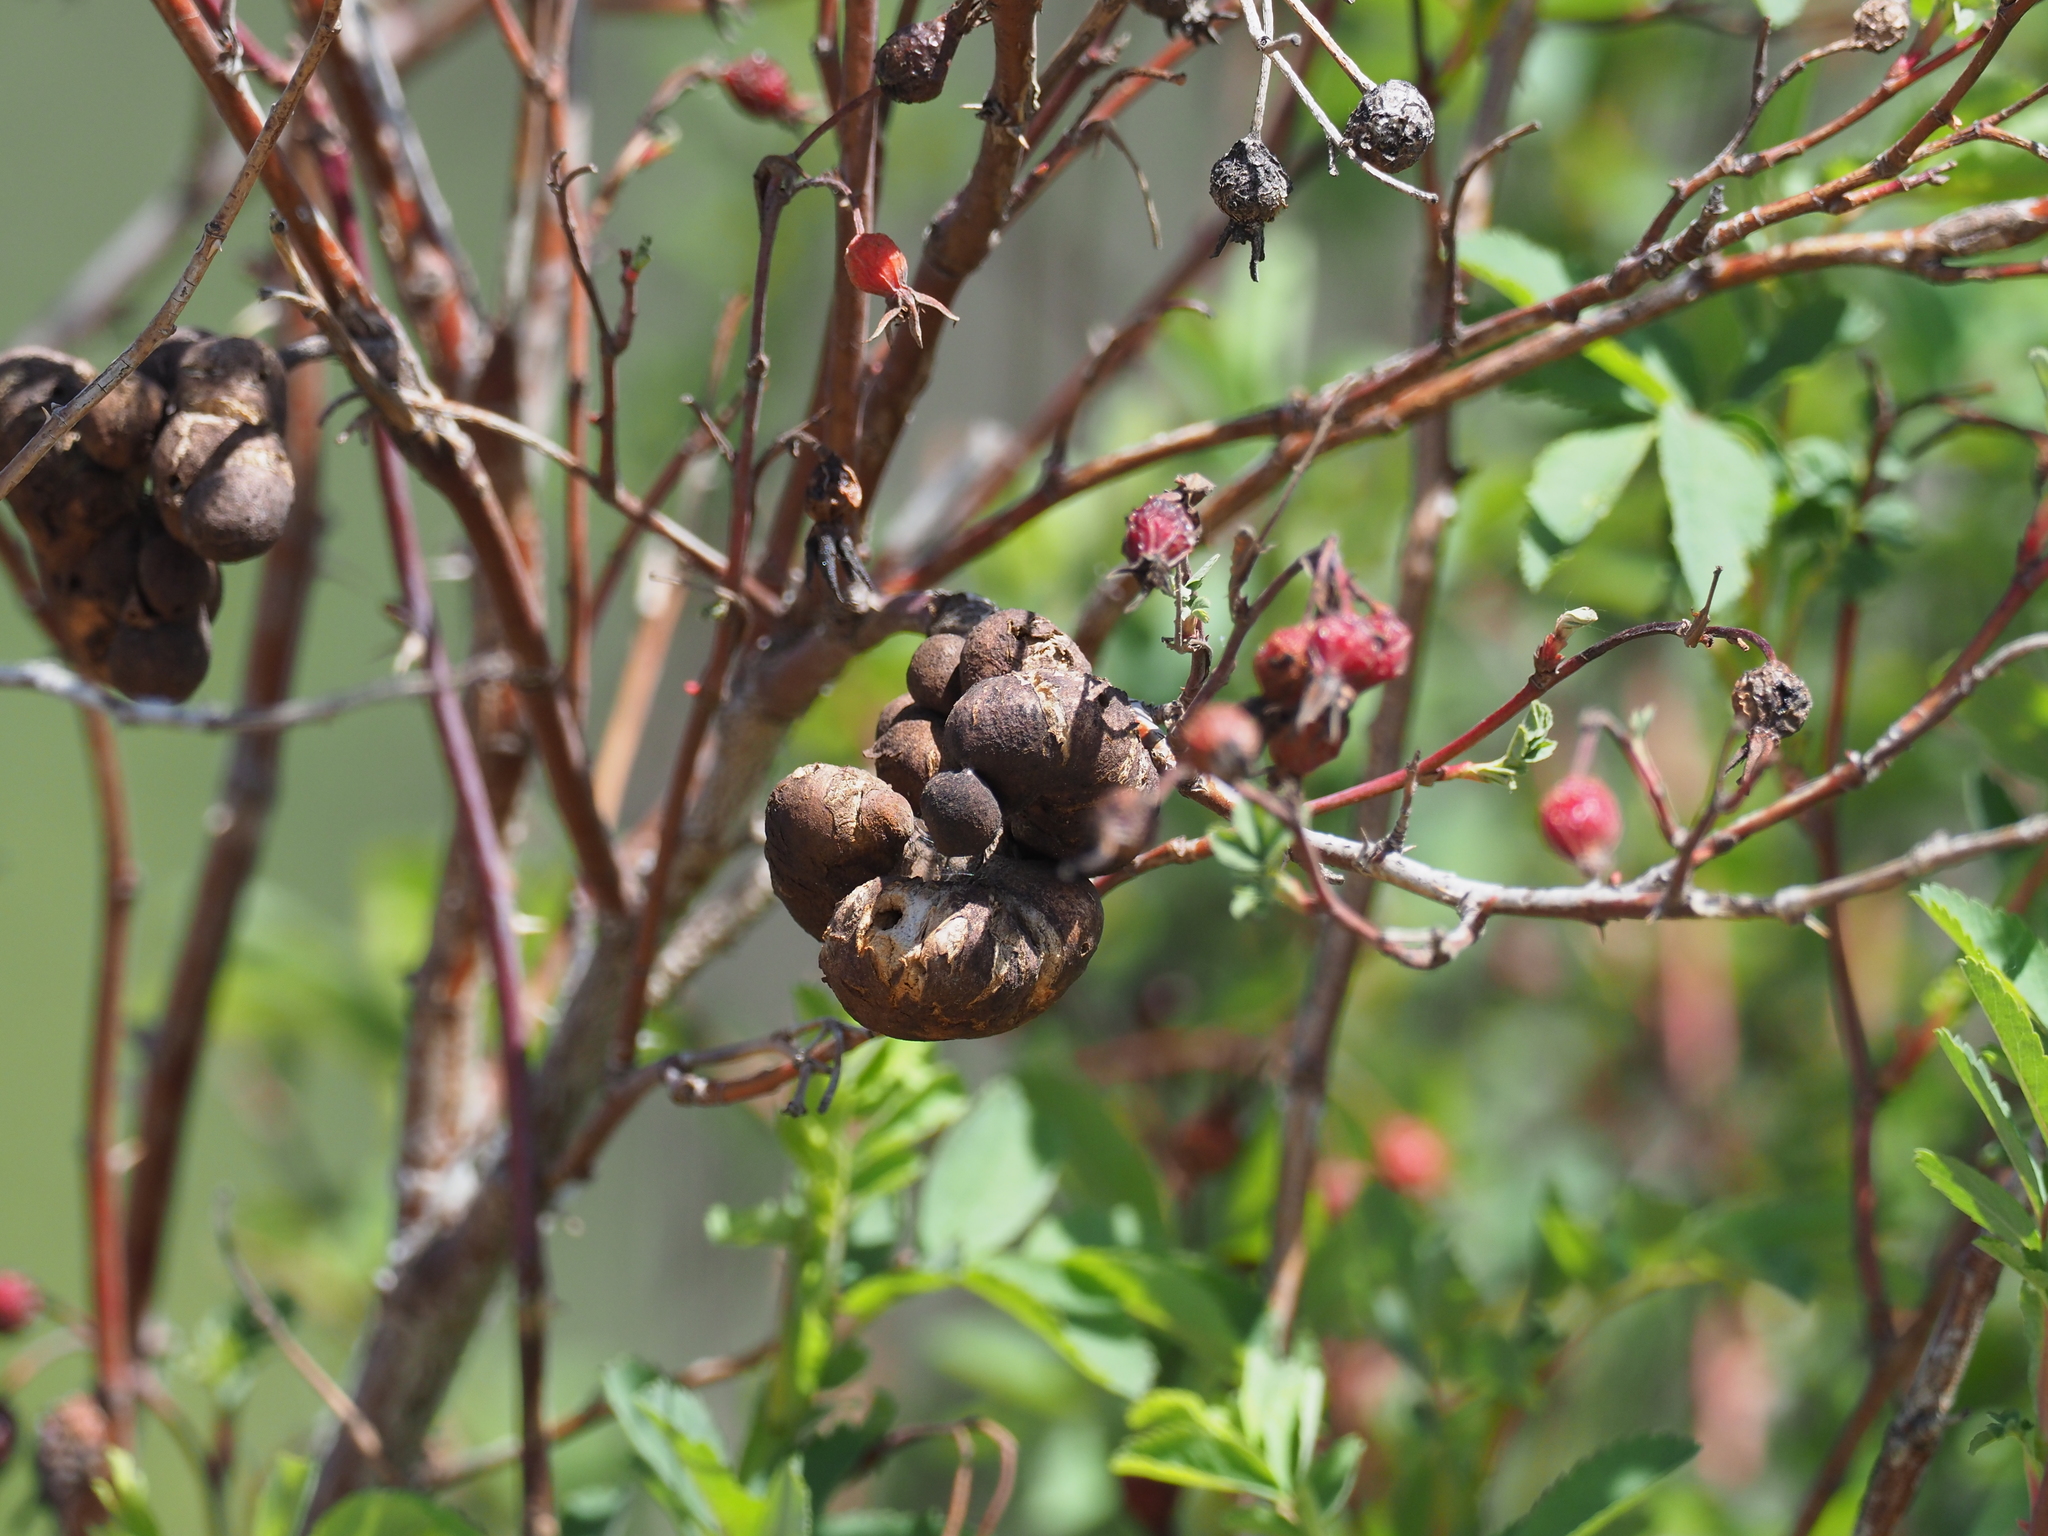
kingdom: Animalia
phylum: Arthropoda
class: Insecta
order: Hymenoptera
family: Cynipidae
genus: Diplolepis
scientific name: Diplolepis variabilis
